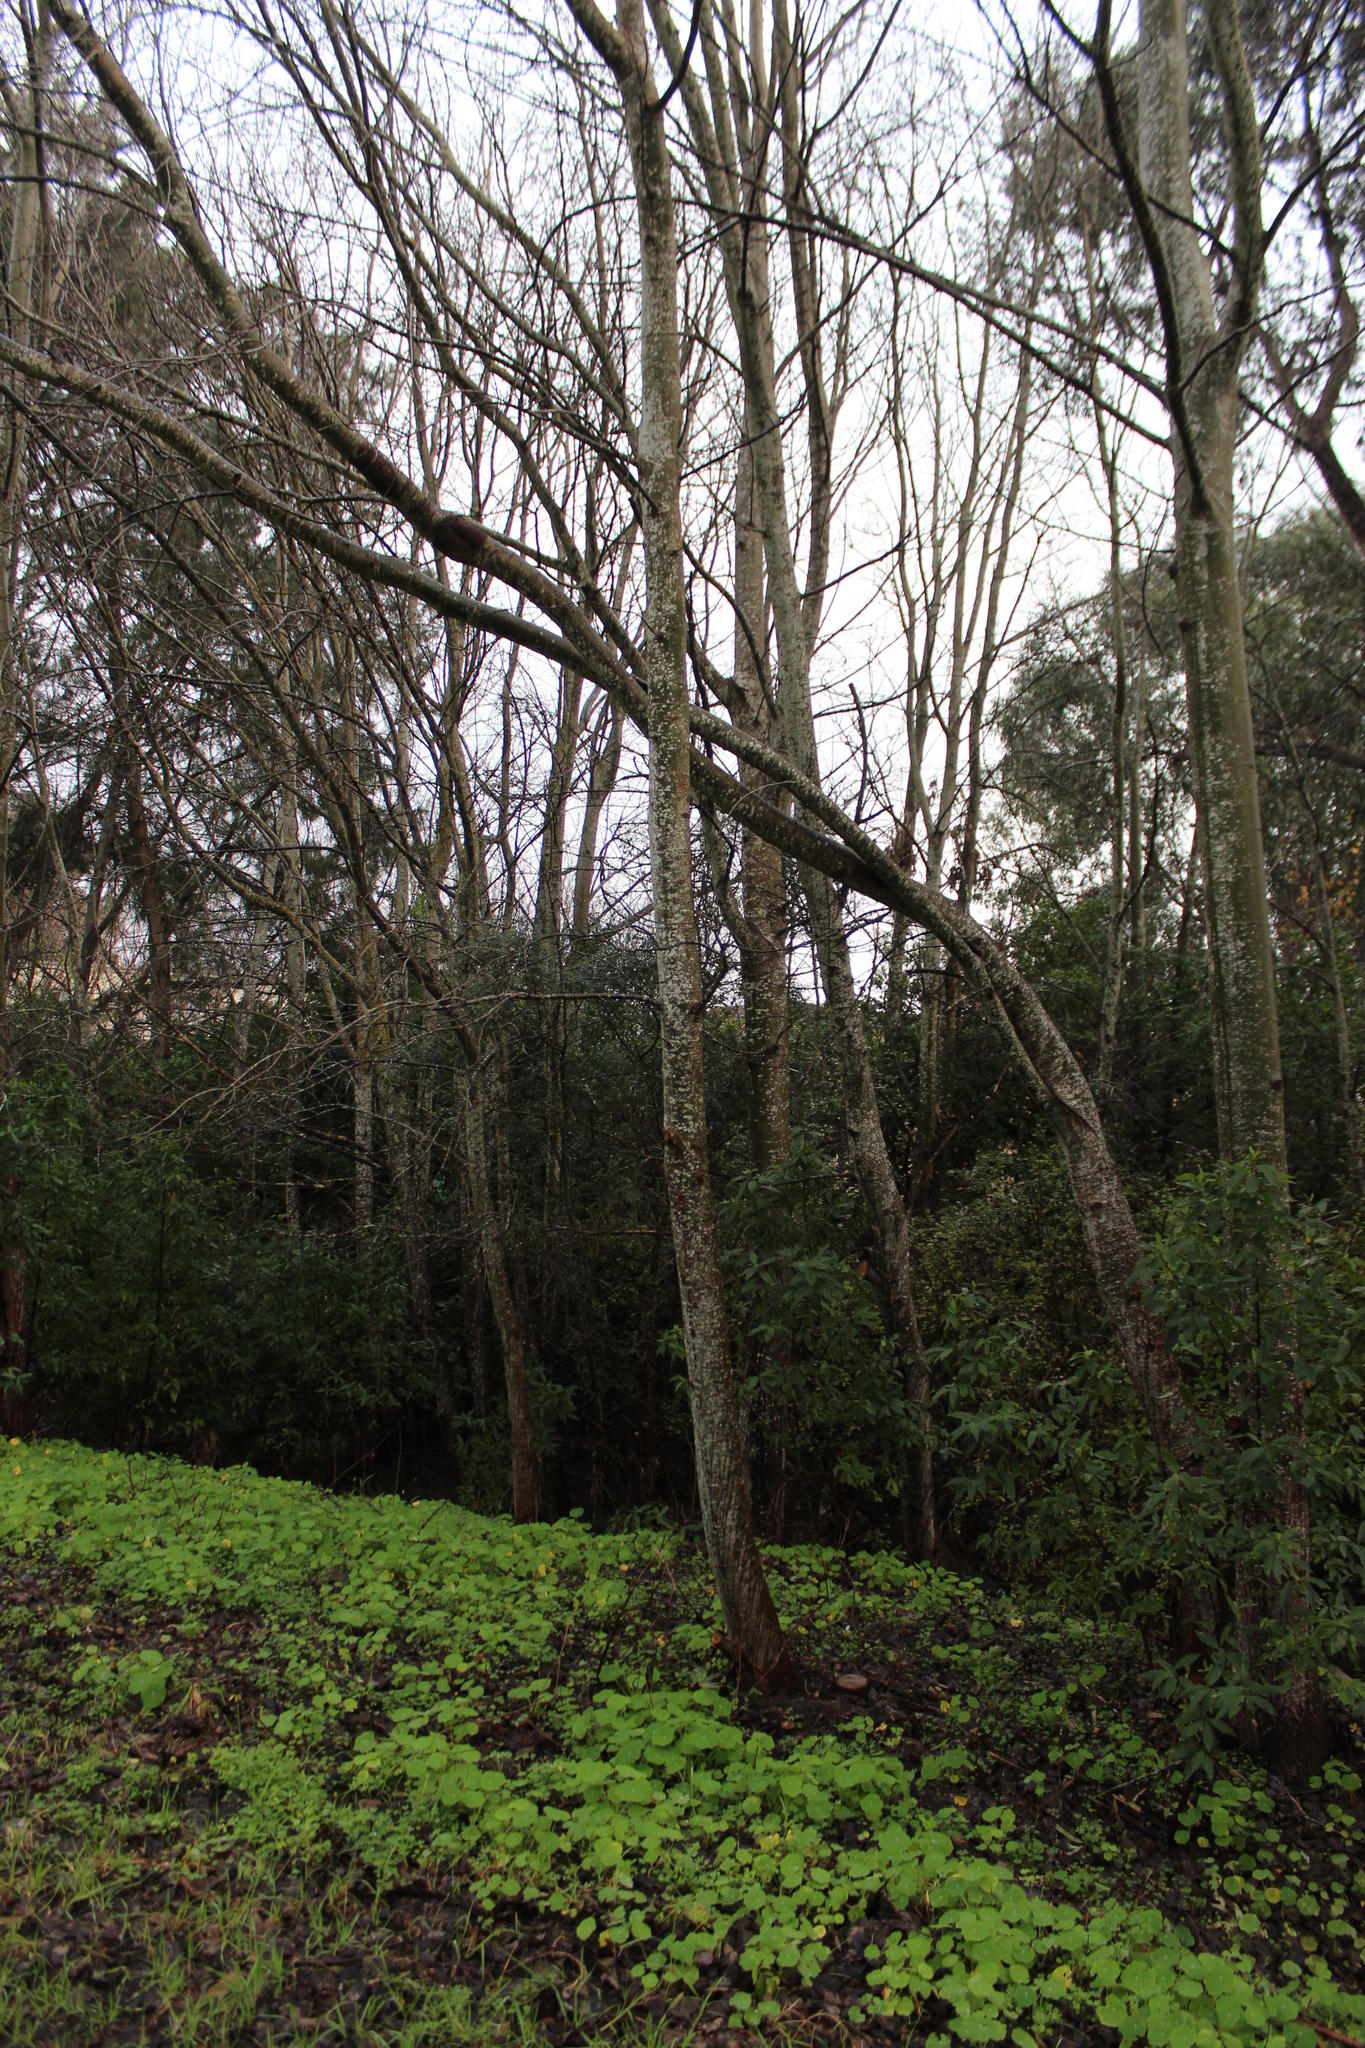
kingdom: Plantae
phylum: Tracheophyta
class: Magnoliopsida
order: Malpighiales
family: Salicaceae
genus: Populus
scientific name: Populus canescens
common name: Gray poplar
